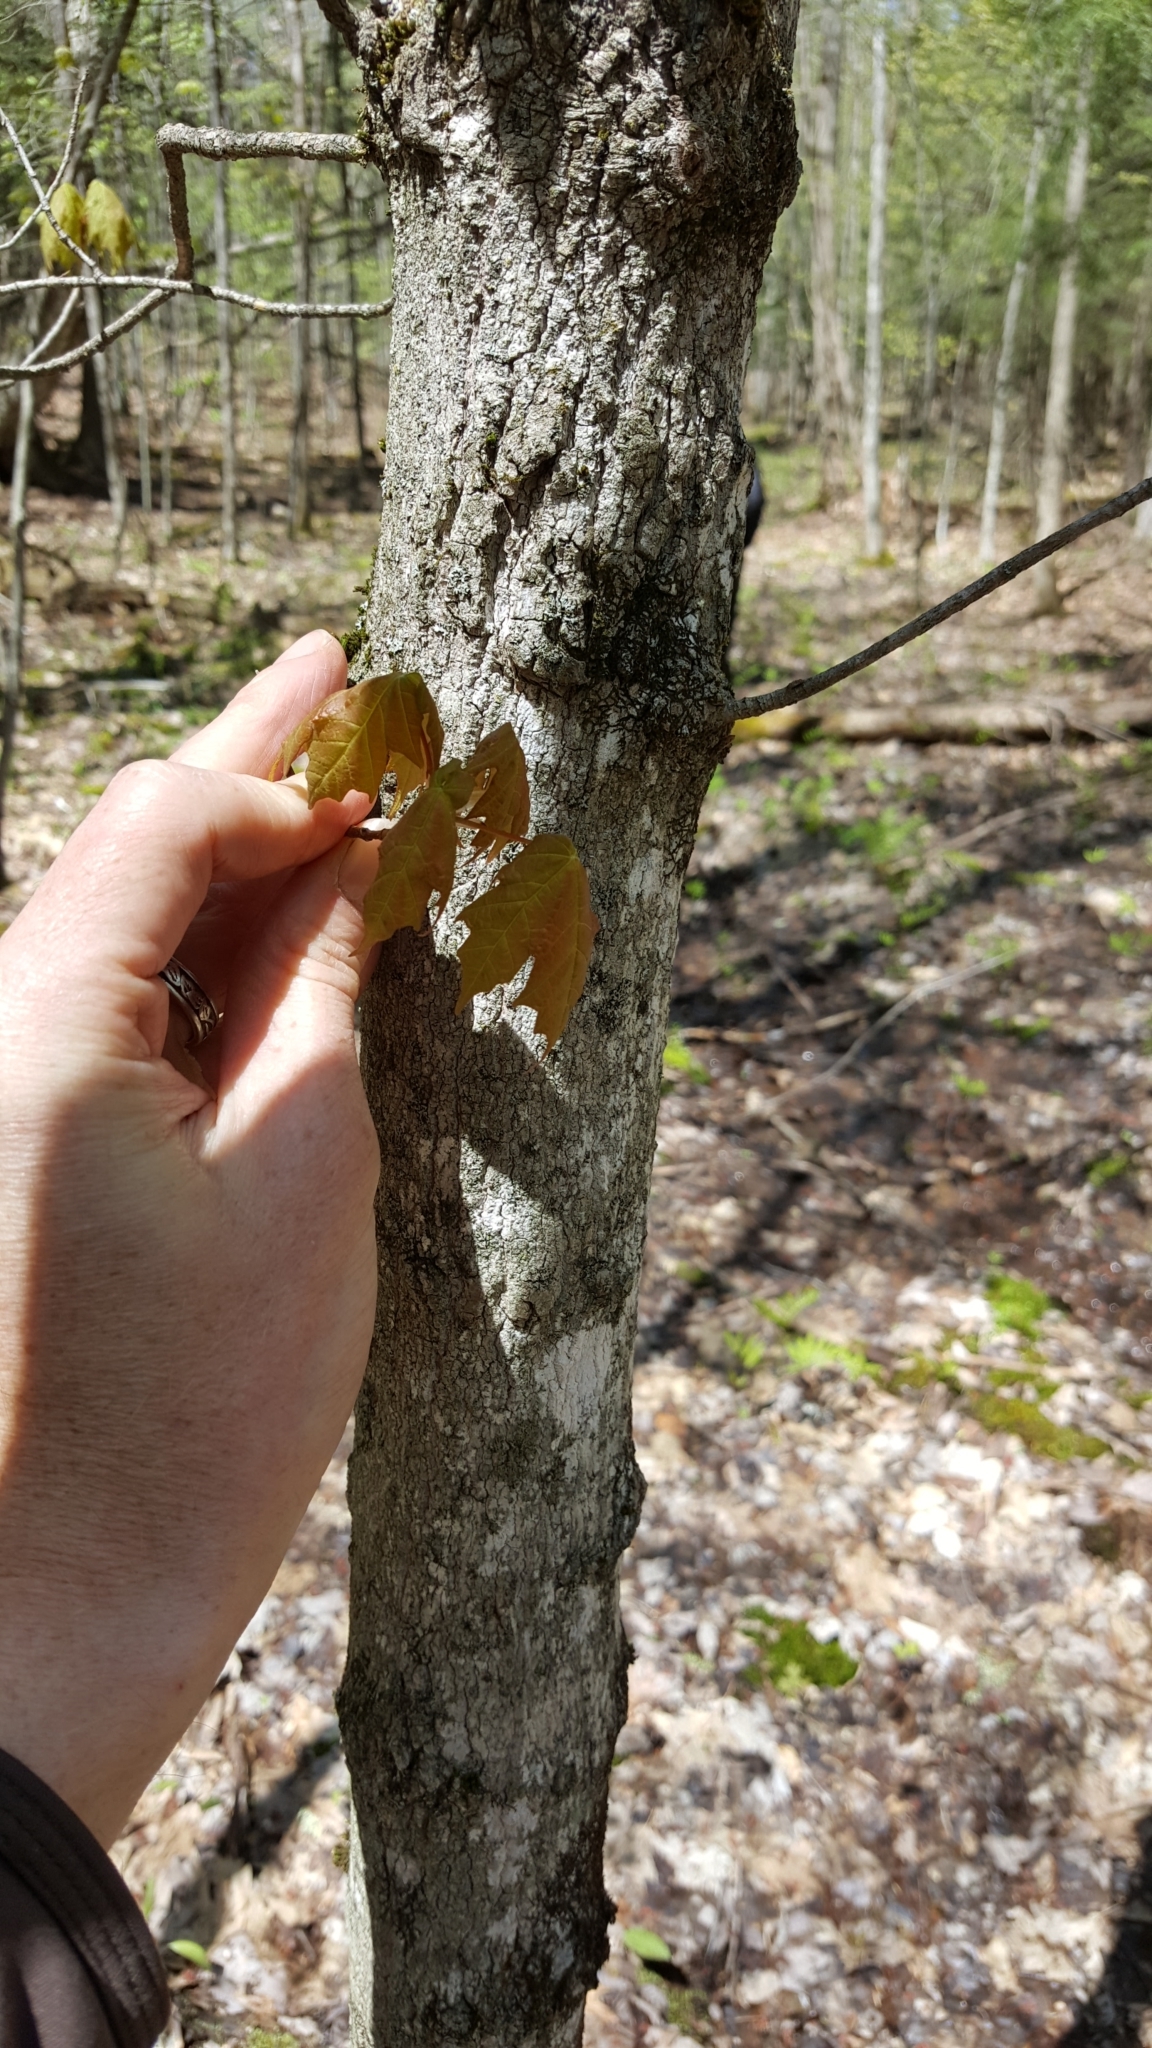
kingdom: Plantae
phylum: Tracheophyta
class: Magnoliopsida
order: Sapindales
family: Sapindaceae
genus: Acer
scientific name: Acer saccharum
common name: Sugar maple
